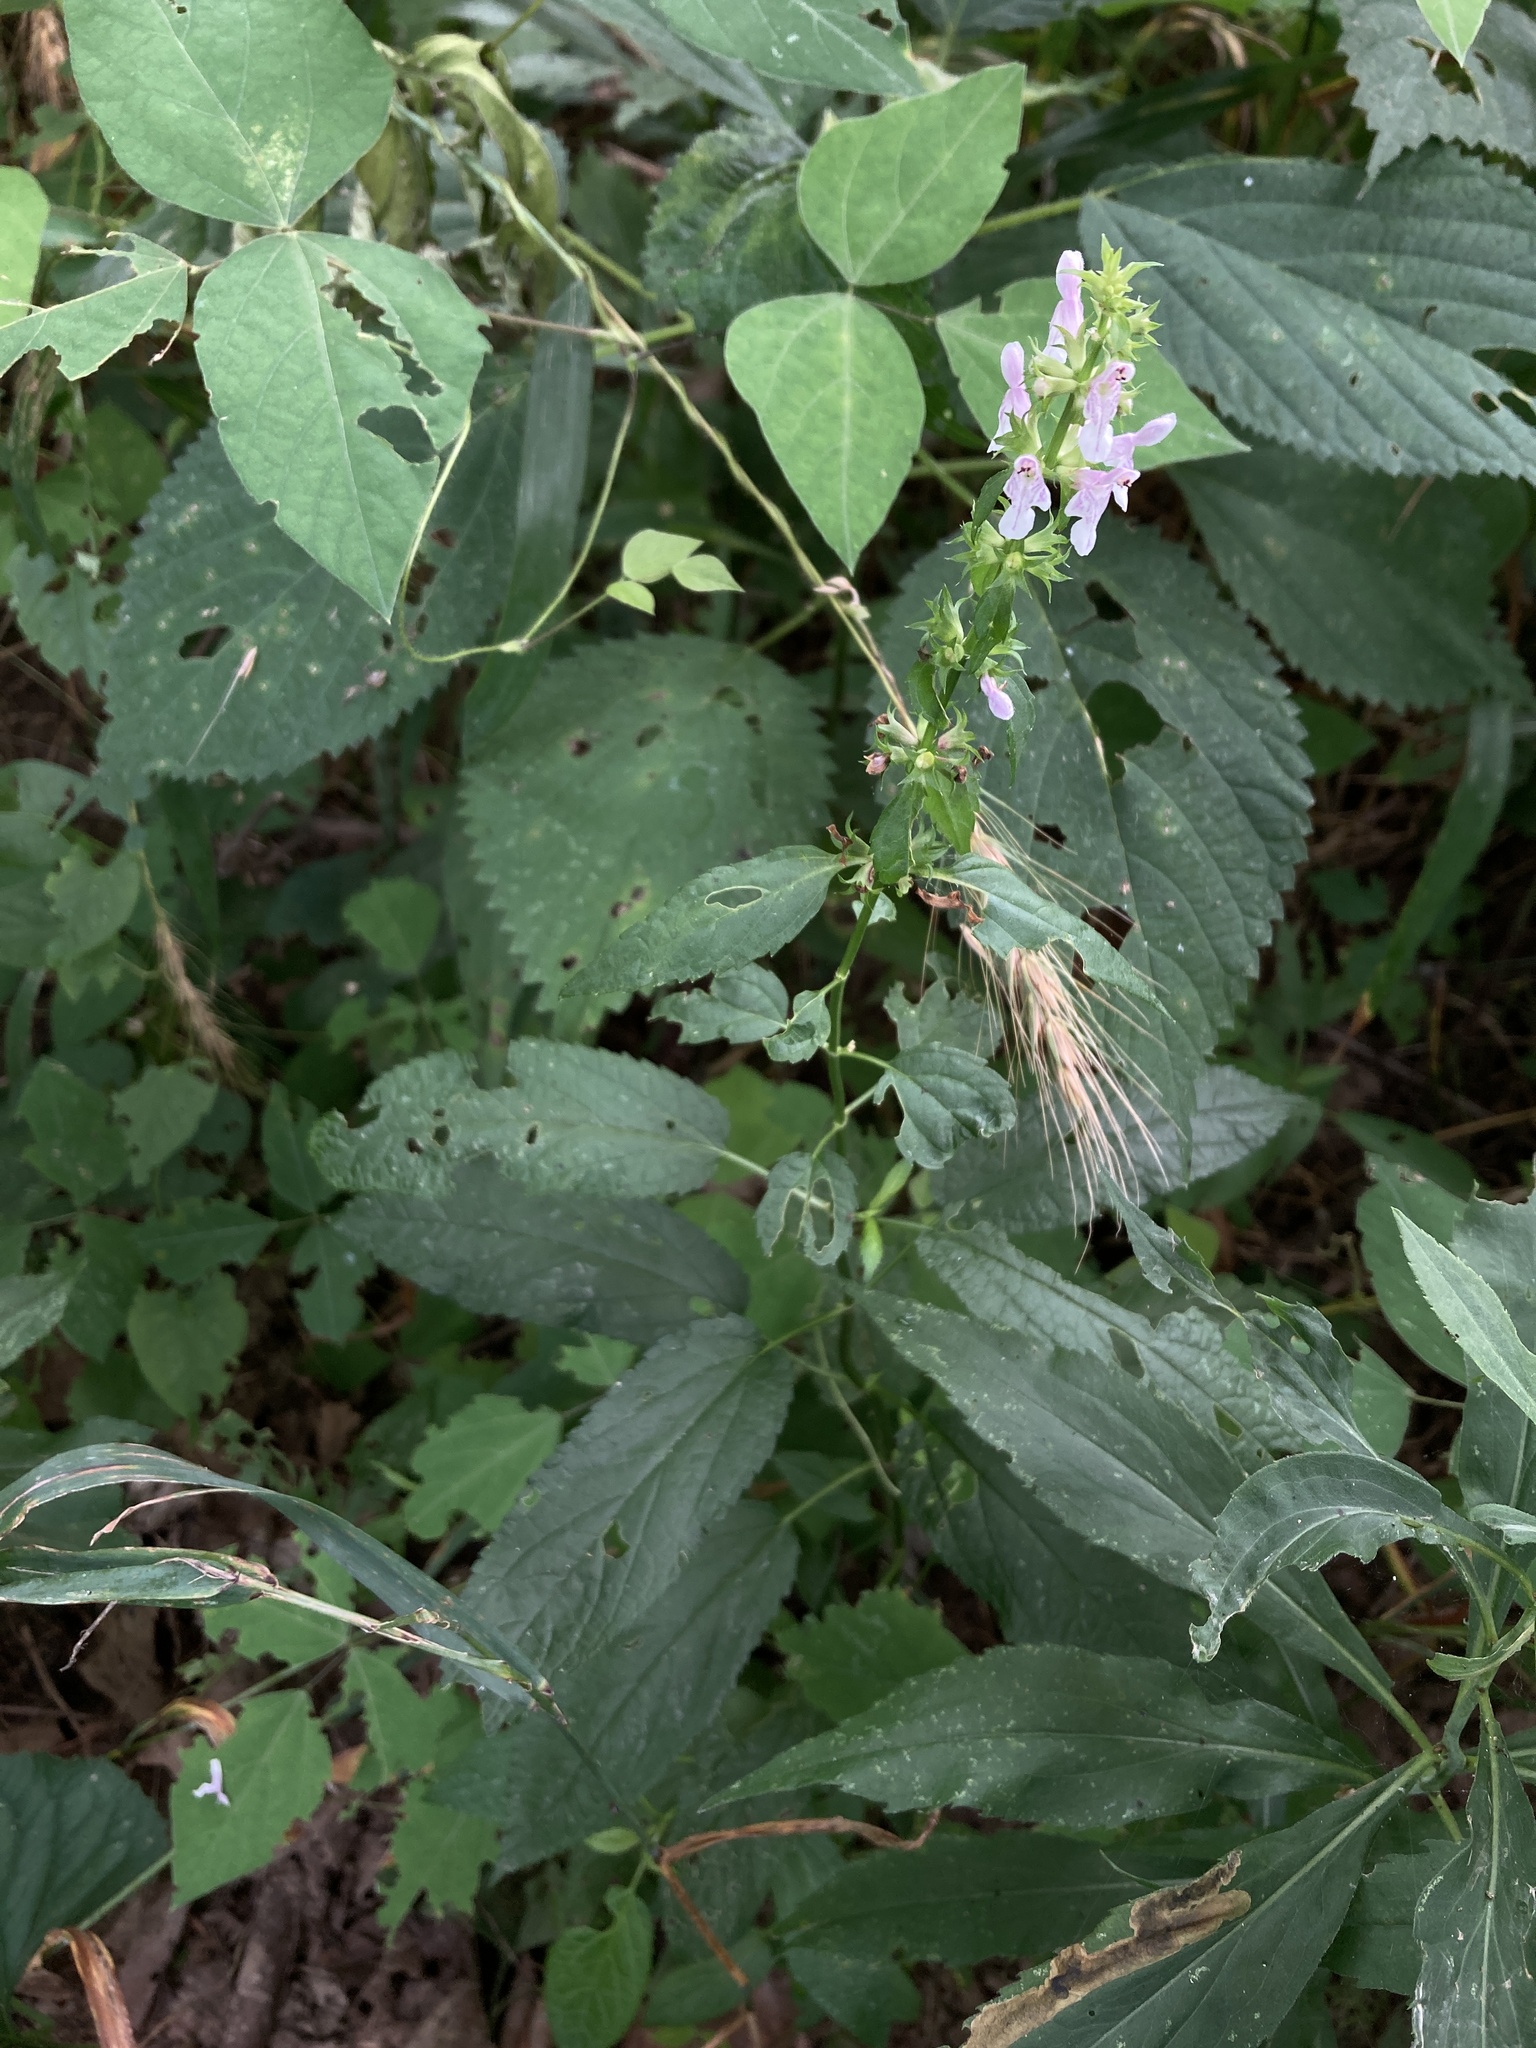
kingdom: Plantae
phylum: Tracheophyta
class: Magnoliopsida
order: Lamiales
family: Lamiaceae
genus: Stachys
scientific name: Stachys tenuifolia
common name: Smooth hedge-nettle
